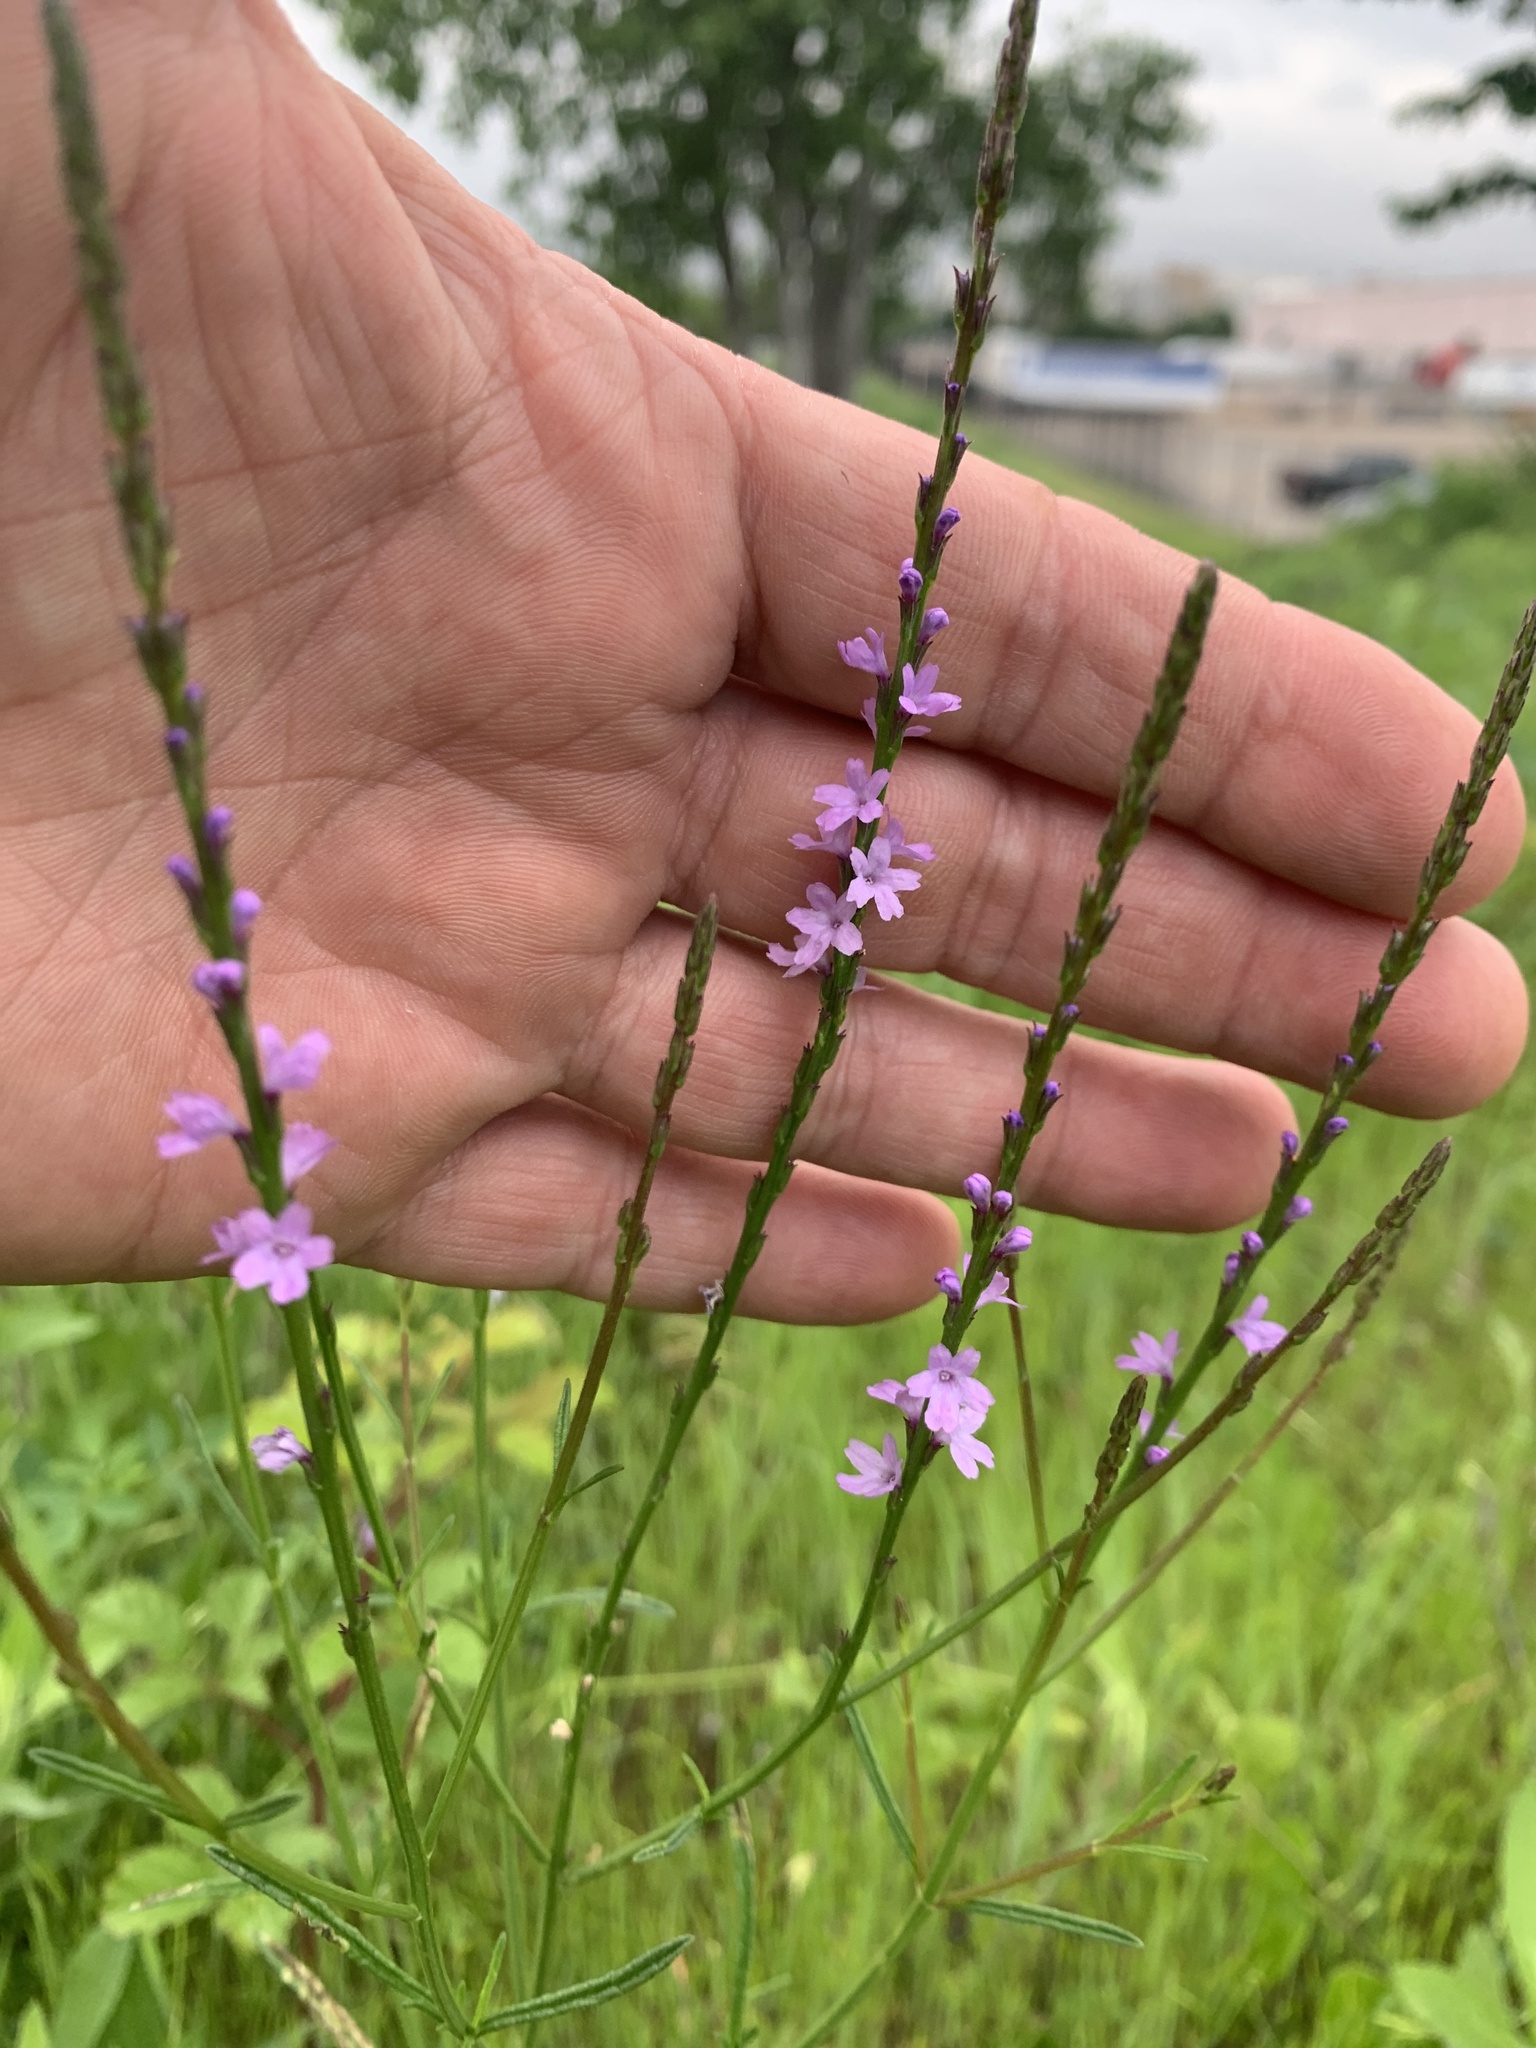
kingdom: Plantae
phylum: Tracheophyta
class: Magnoliopsida
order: Lamiales
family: Verbenaceae
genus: Verbena
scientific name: Verbena halei
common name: Texas vervain
